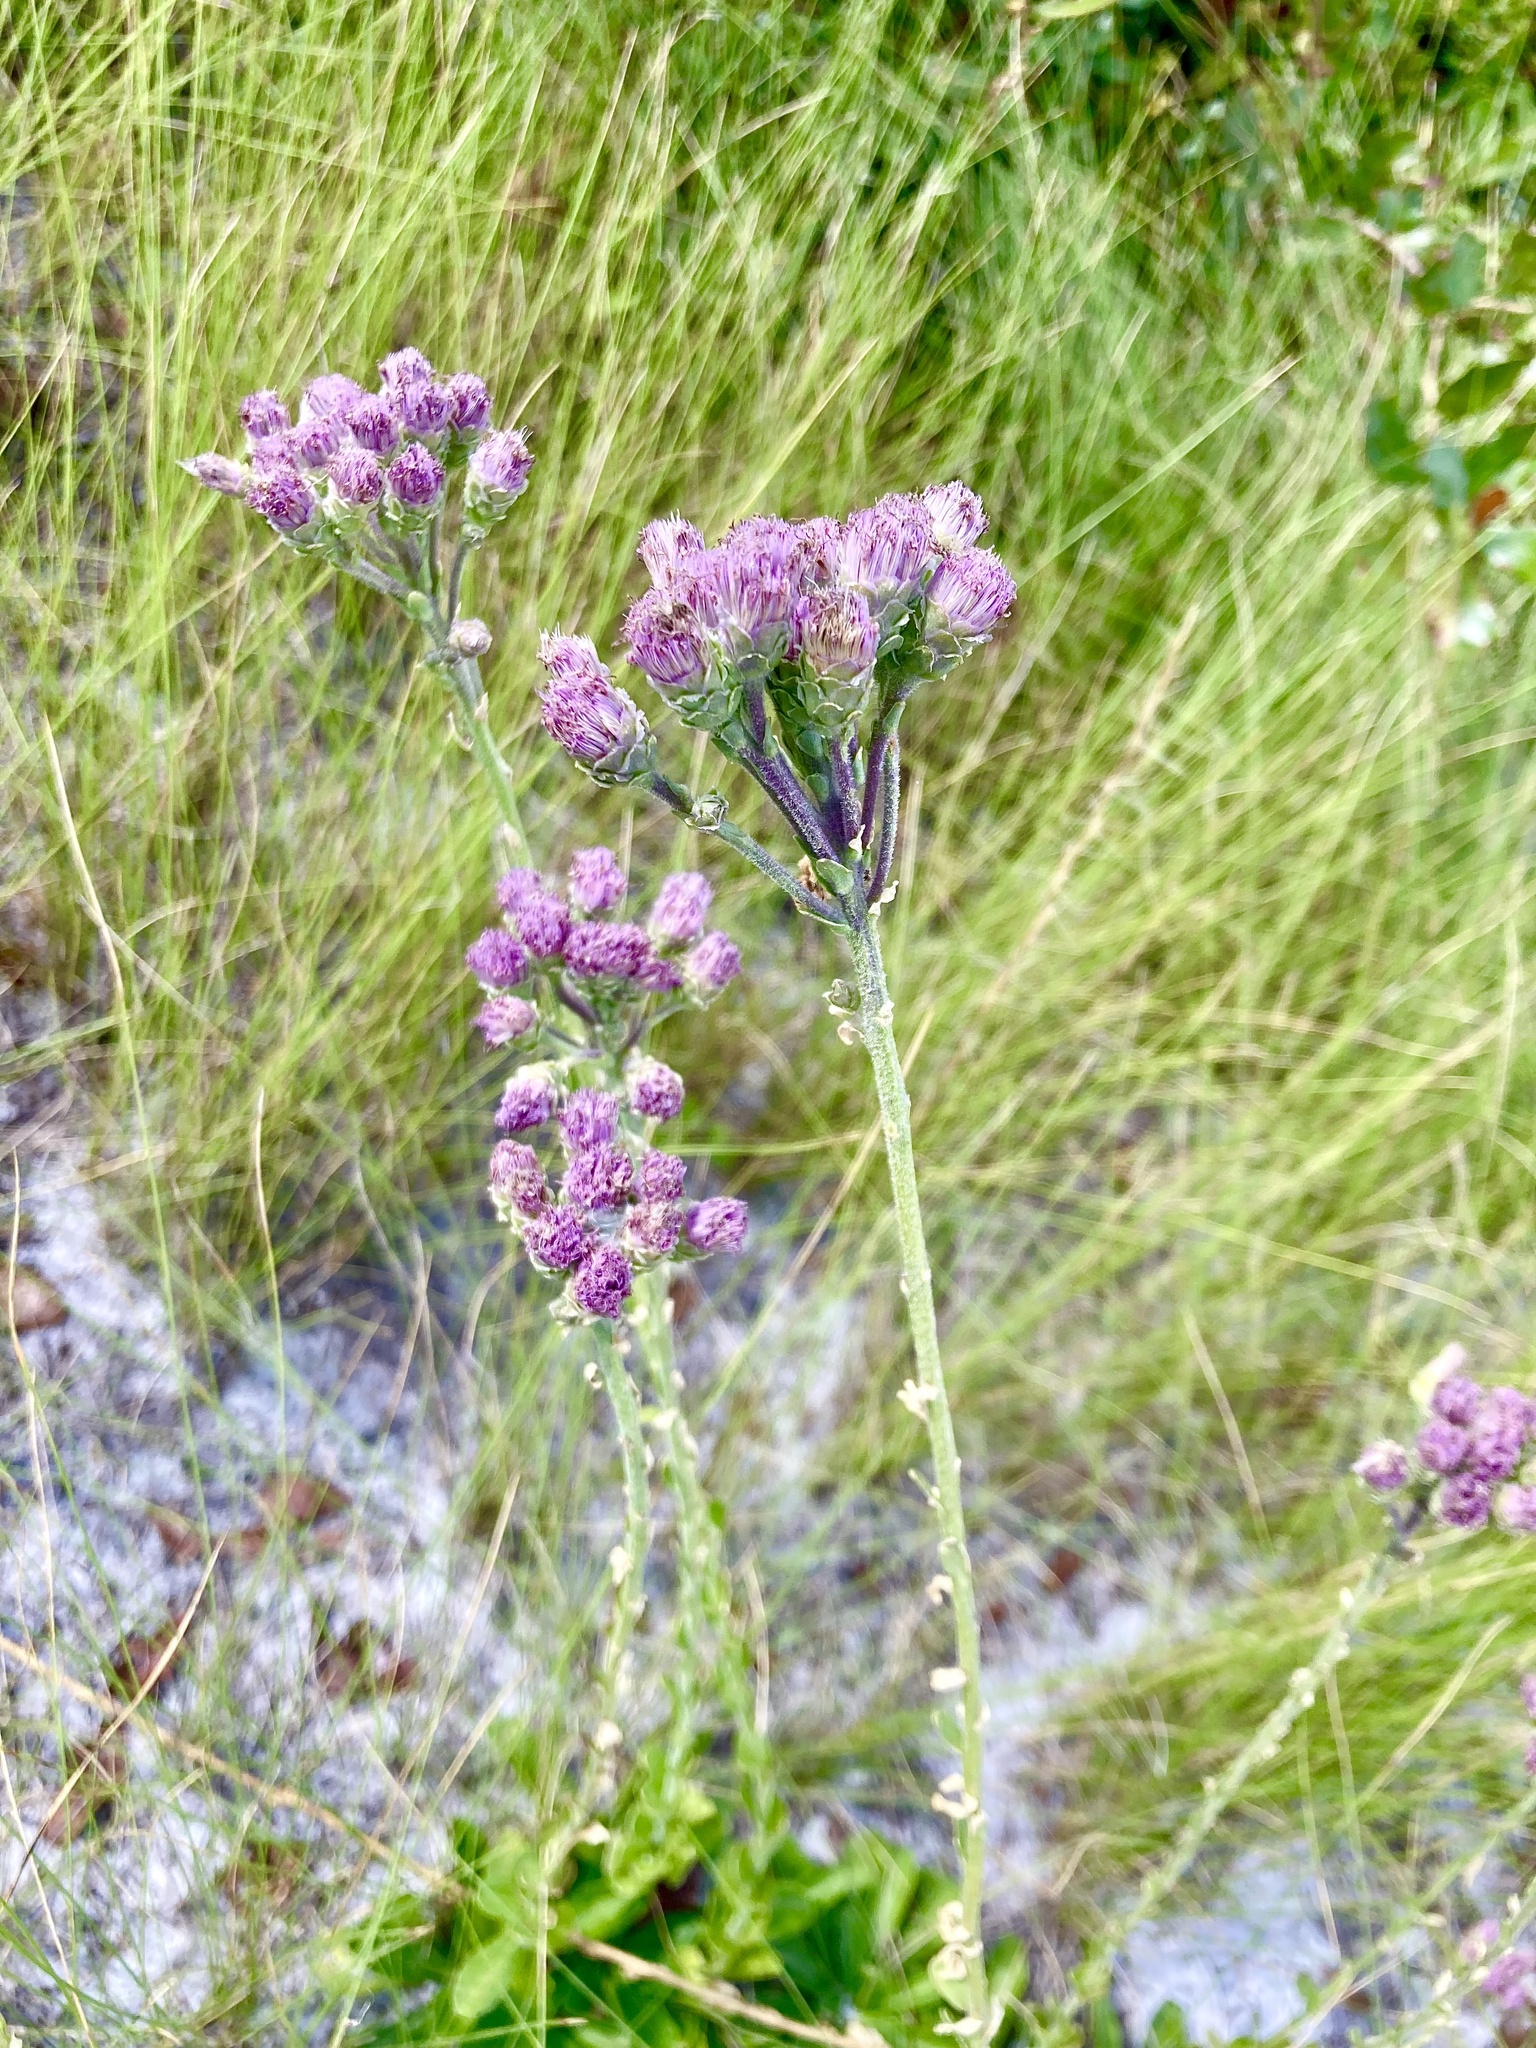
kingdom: Plantae
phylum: Tracheophyta
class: Magnoliopsida
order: Asterales
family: Asteraceae
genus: Carphephorus
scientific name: Carphephorus corymbosus
